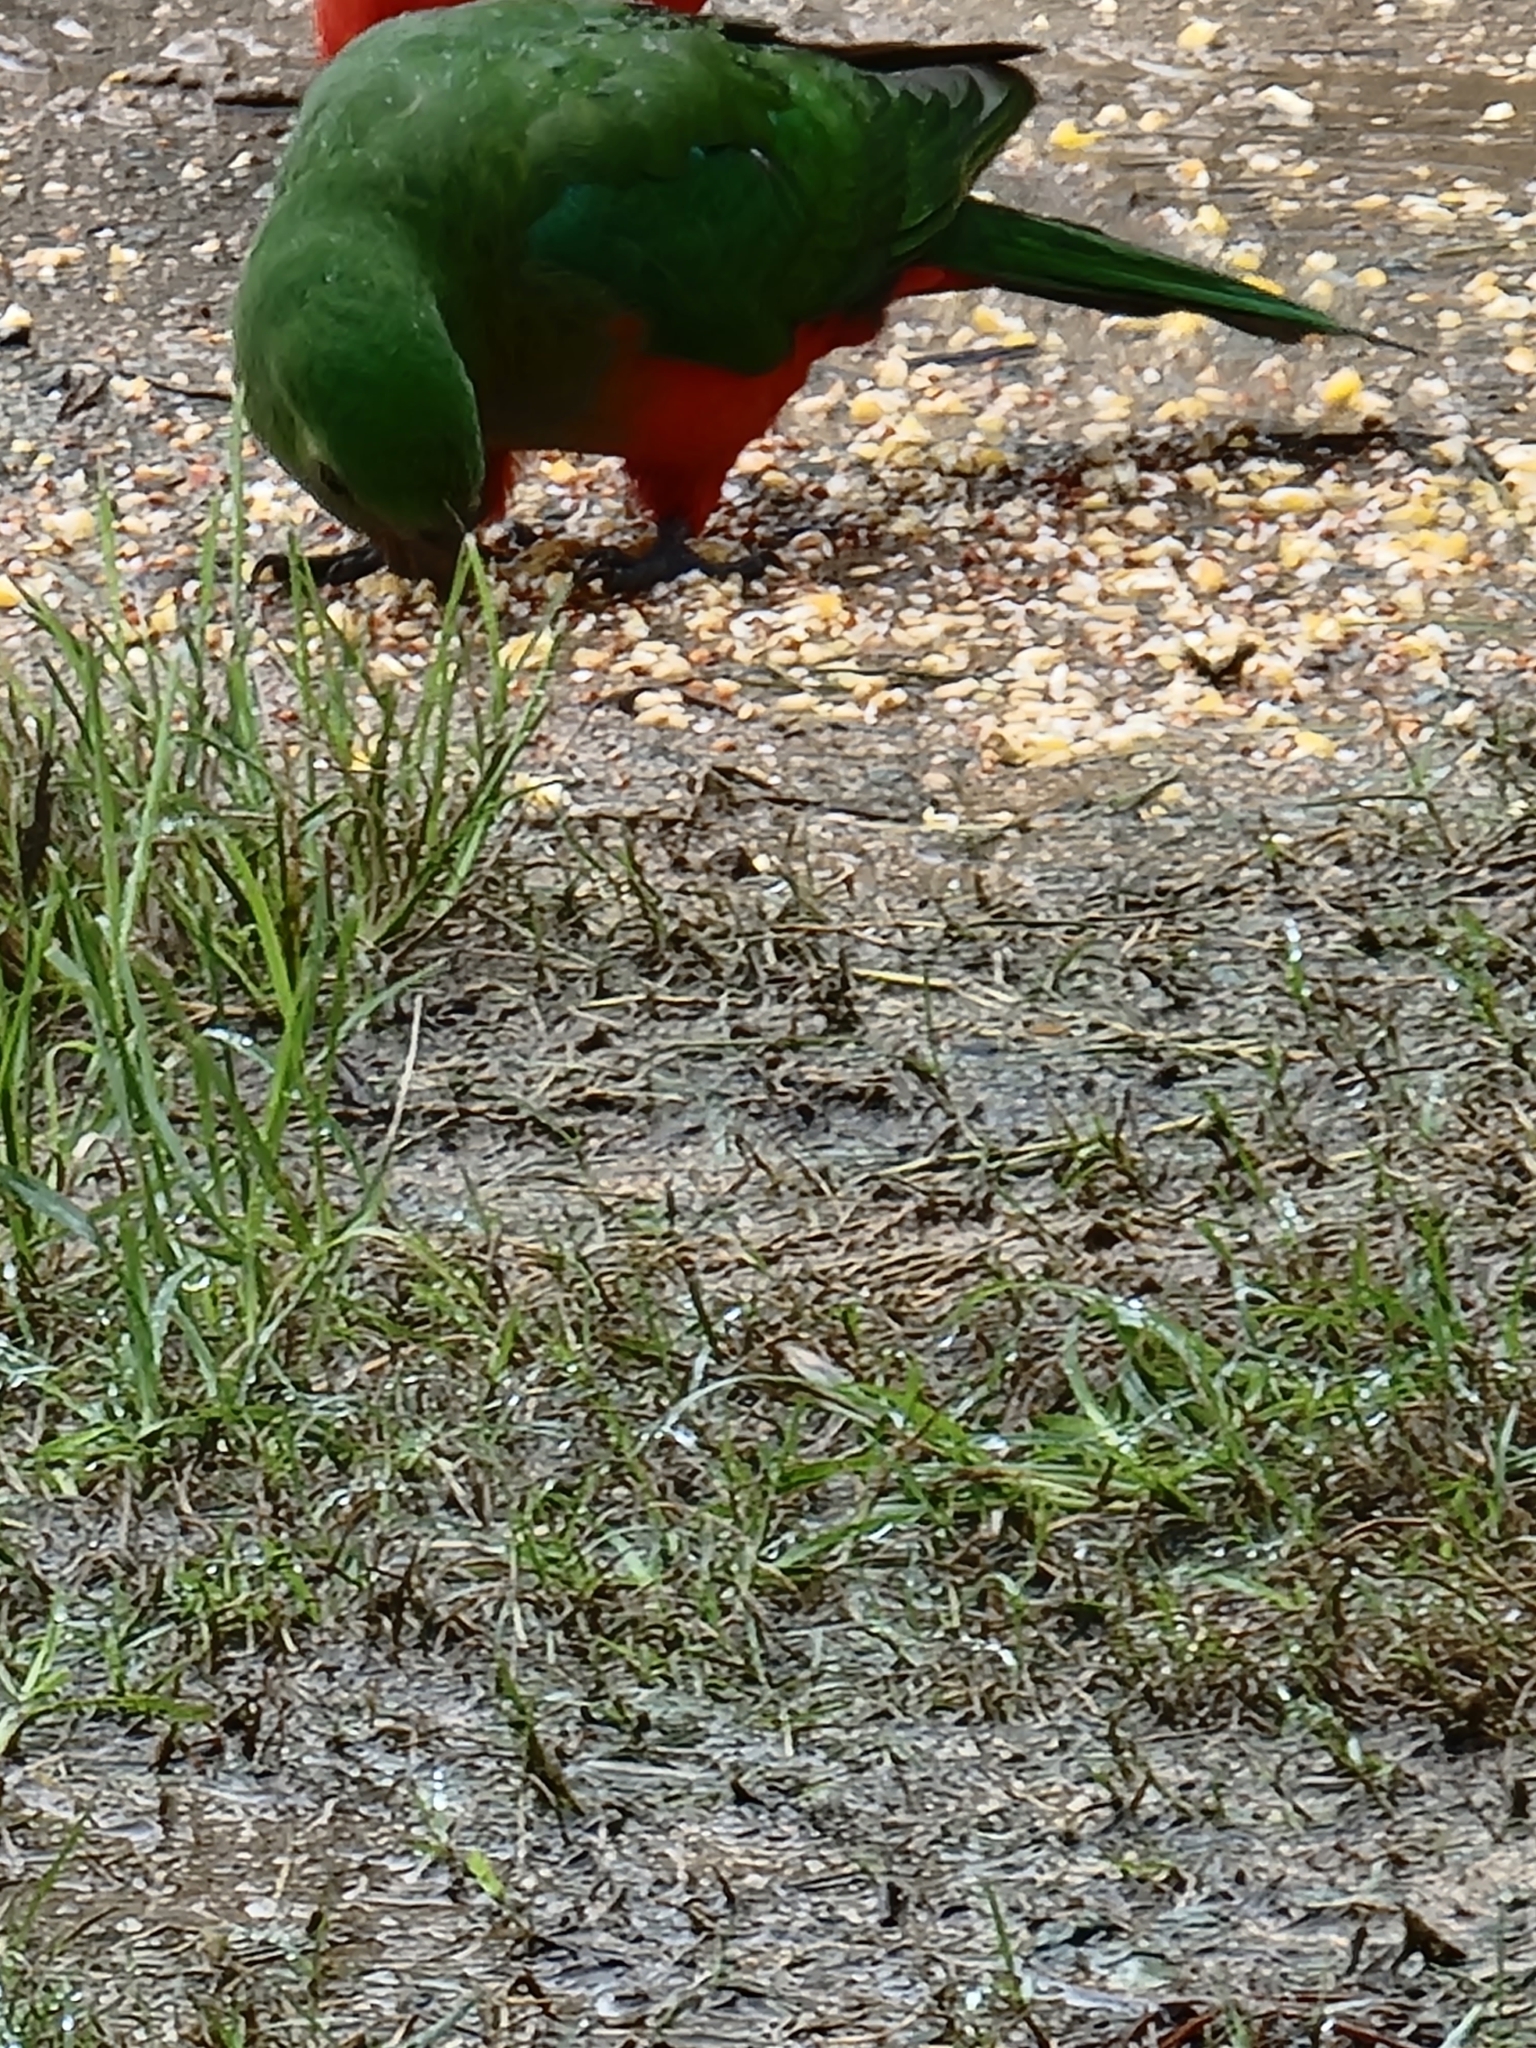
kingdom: Animalia
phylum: Chordata
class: Aves
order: Psittaciformes
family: Psittacidae
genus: Alisterus
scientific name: Alisterus scapularis
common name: Australian king parrot
